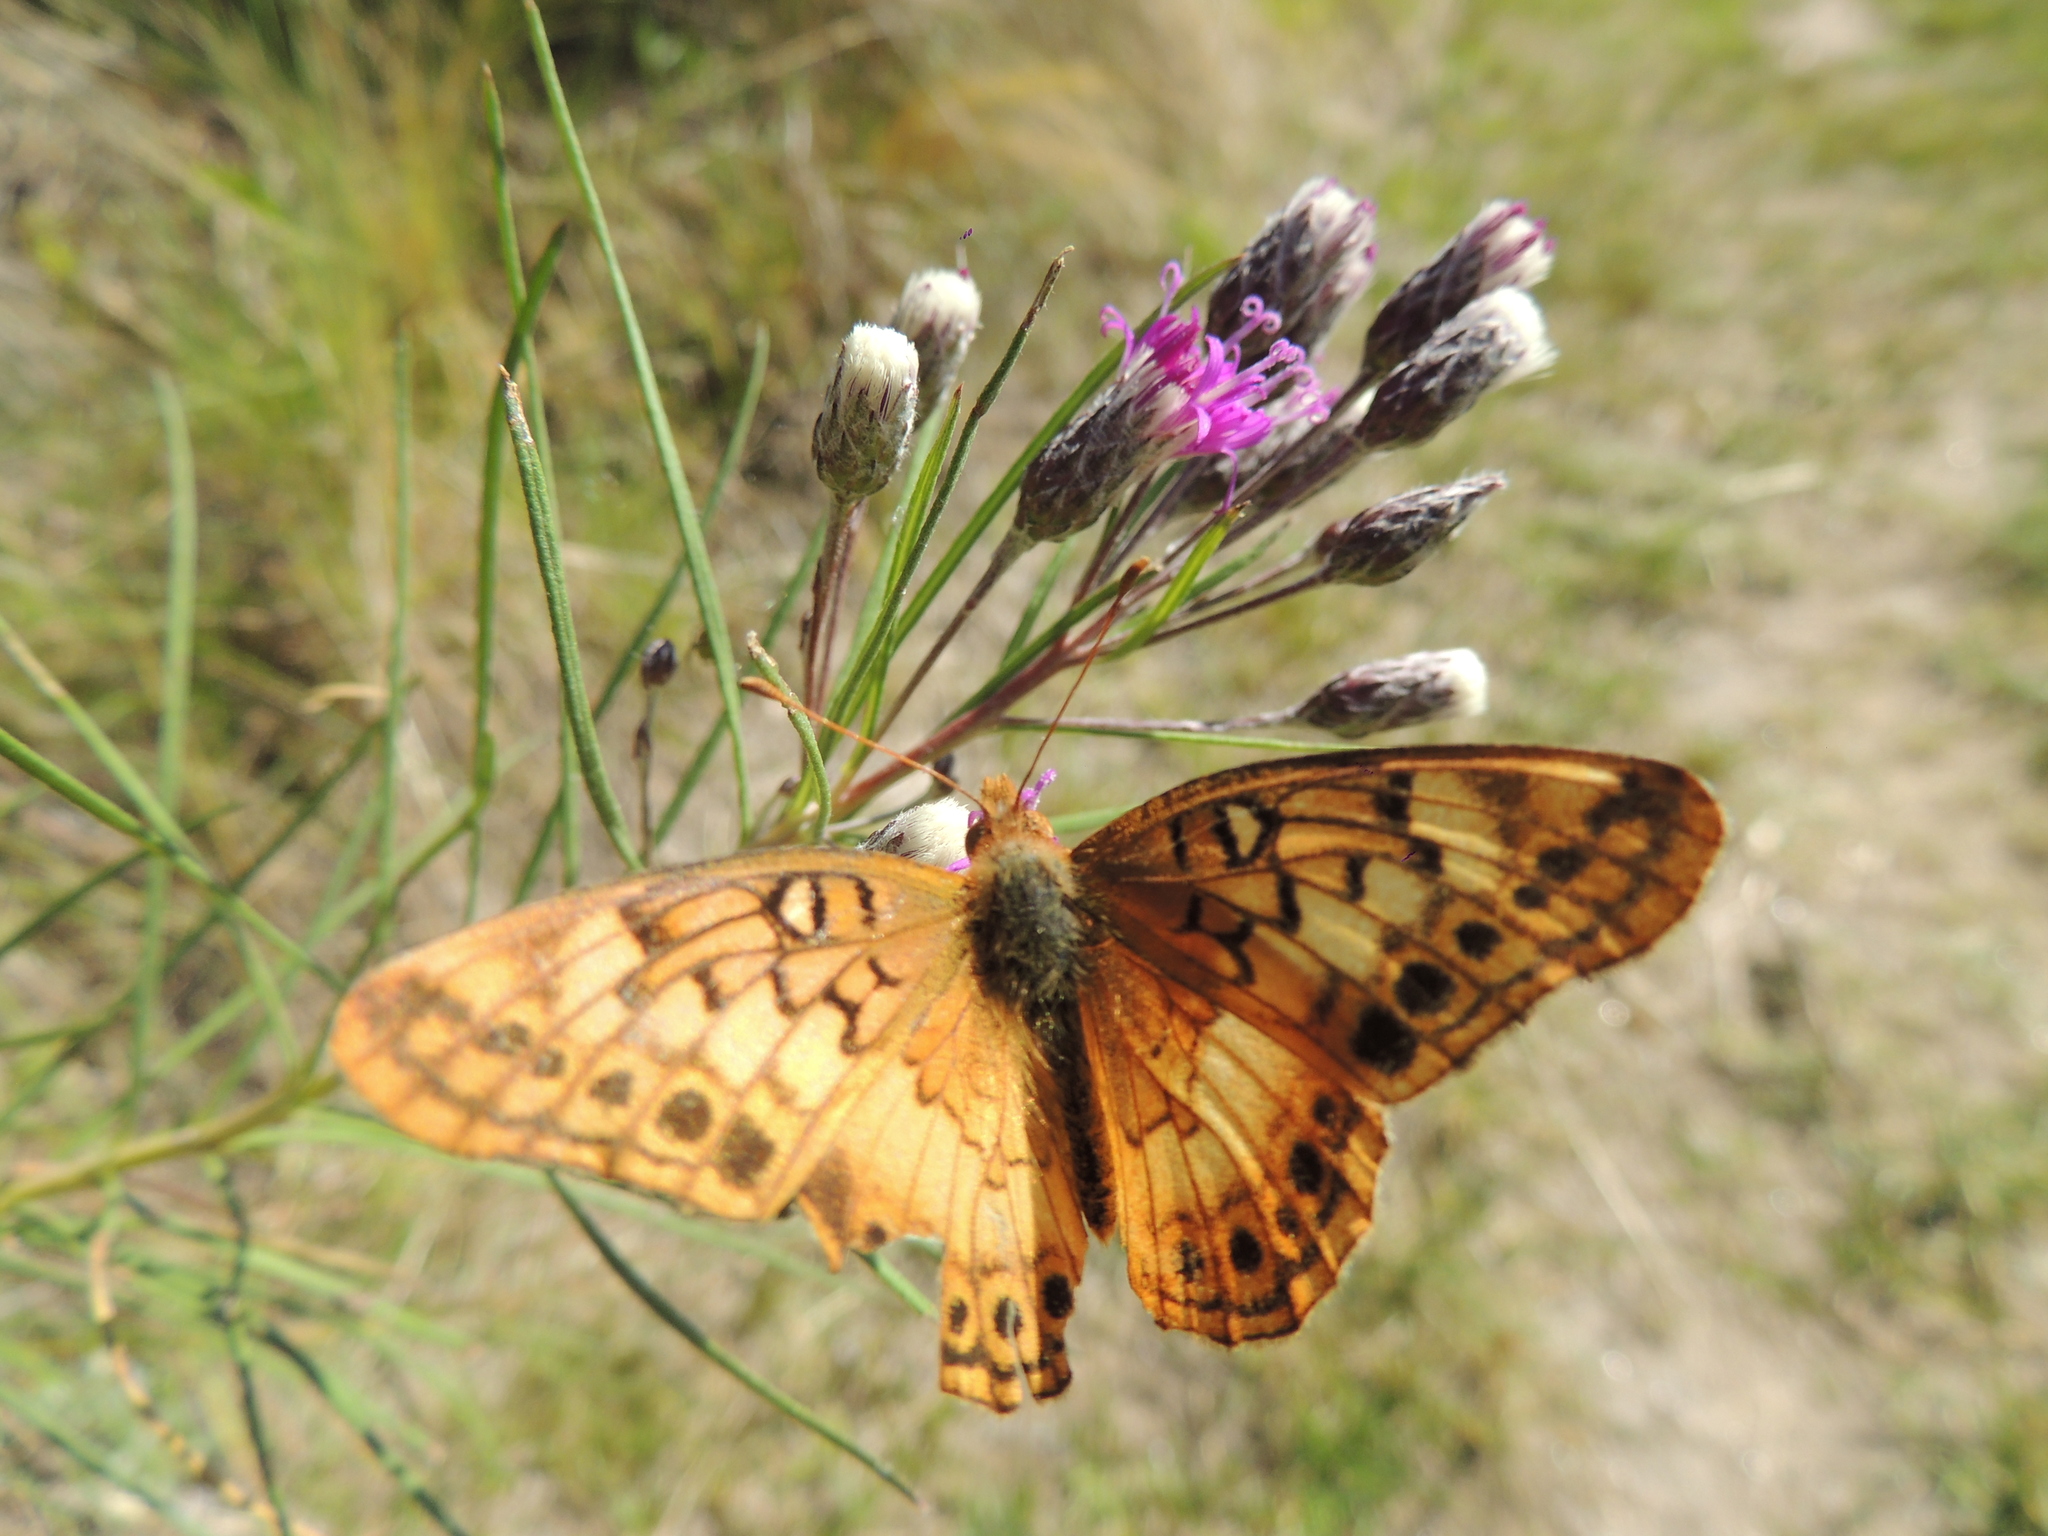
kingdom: Animalia
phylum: Arthropoda
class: Insecta
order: Lepidoptera
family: Nymphalidae
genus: Euptoieta
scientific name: Euptoieta hortensia
